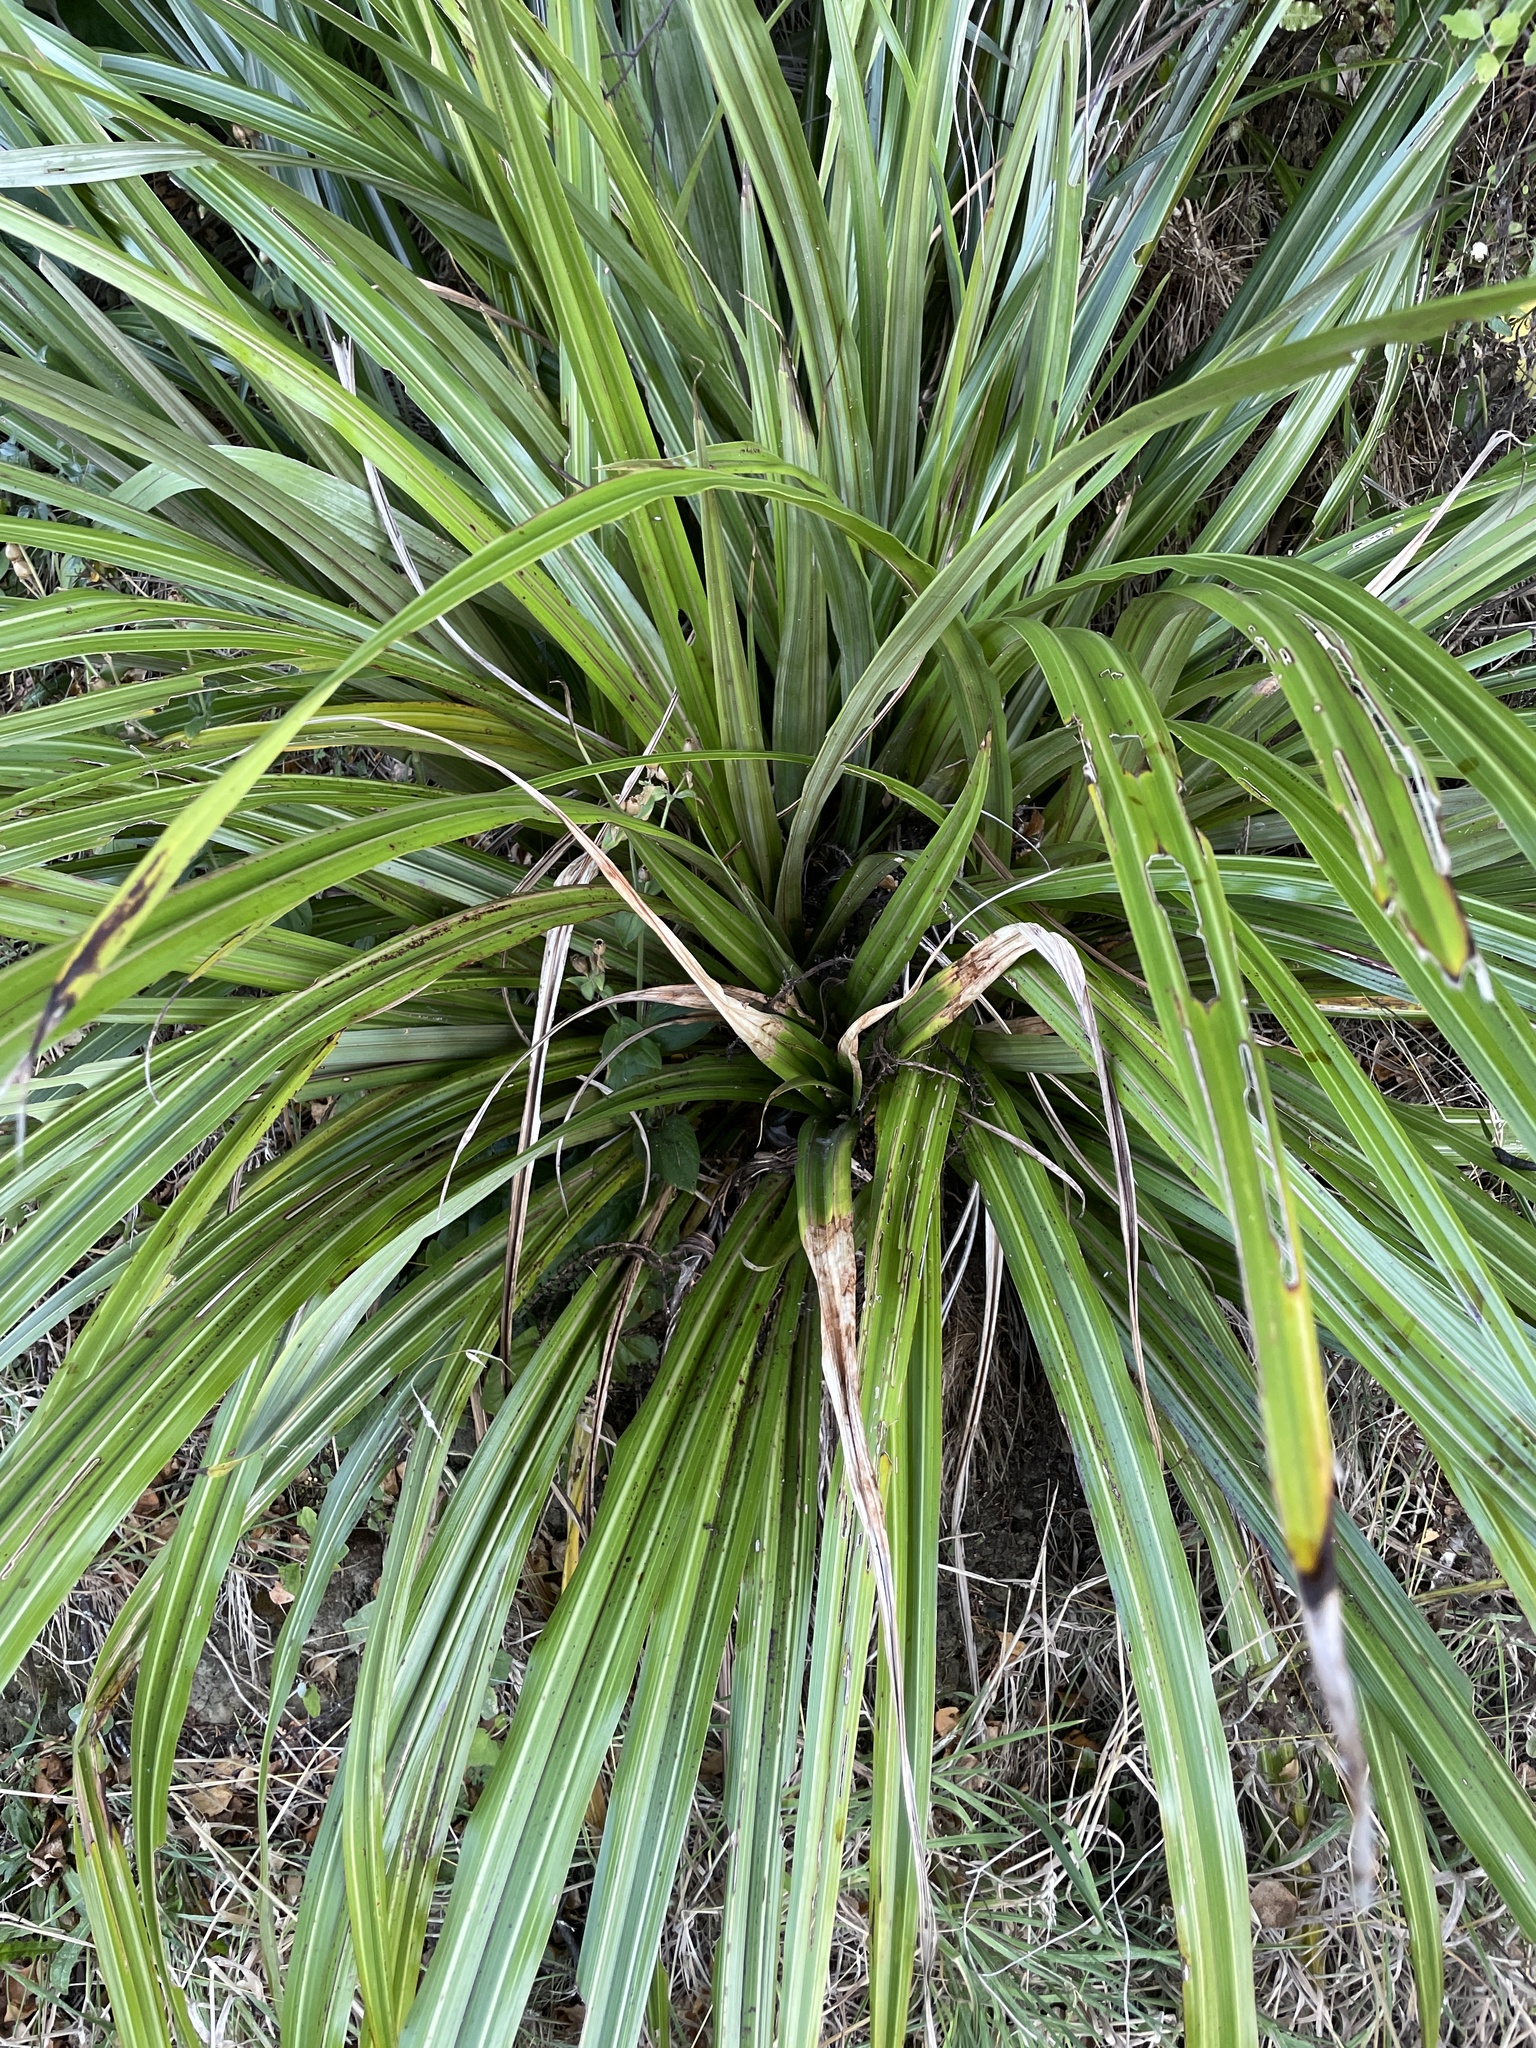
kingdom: Plantae
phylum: Tracheophyta
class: Liliopsida
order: Asparagales
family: Asteliaceae
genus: Astelia
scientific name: Astelia fragrans
